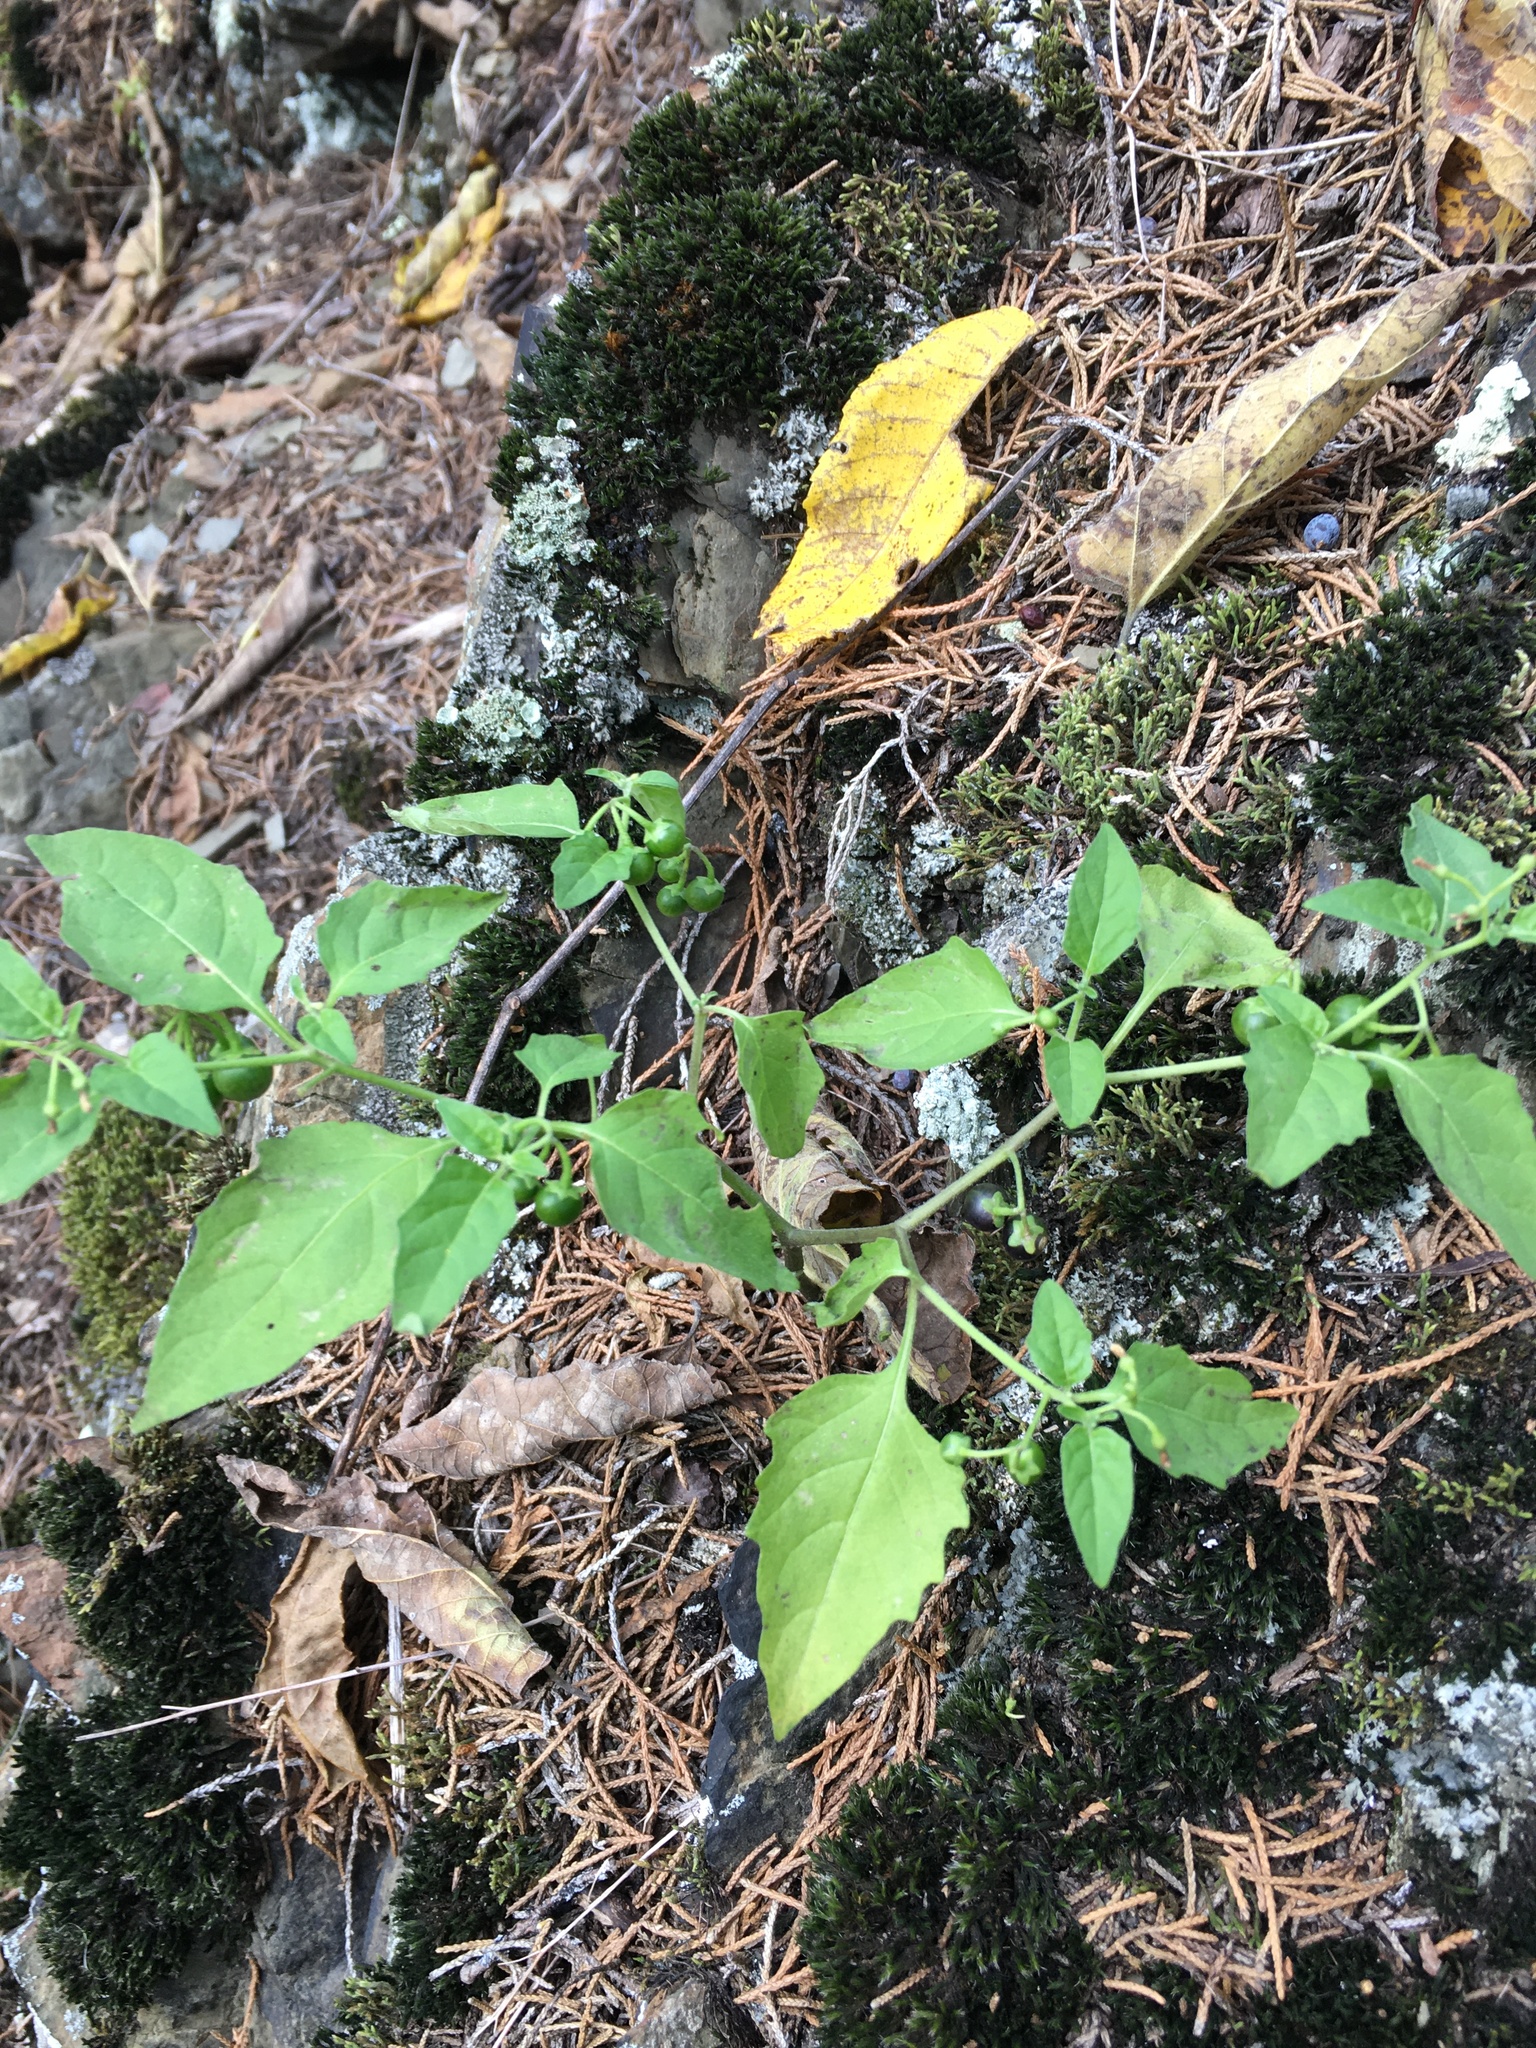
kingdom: Plantae
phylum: Tracheophyta
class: Magnoliopsida
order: Solanales
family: Solanaceae
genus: Solanum
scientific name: Solanum emulans
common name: Eastern black nightshade
